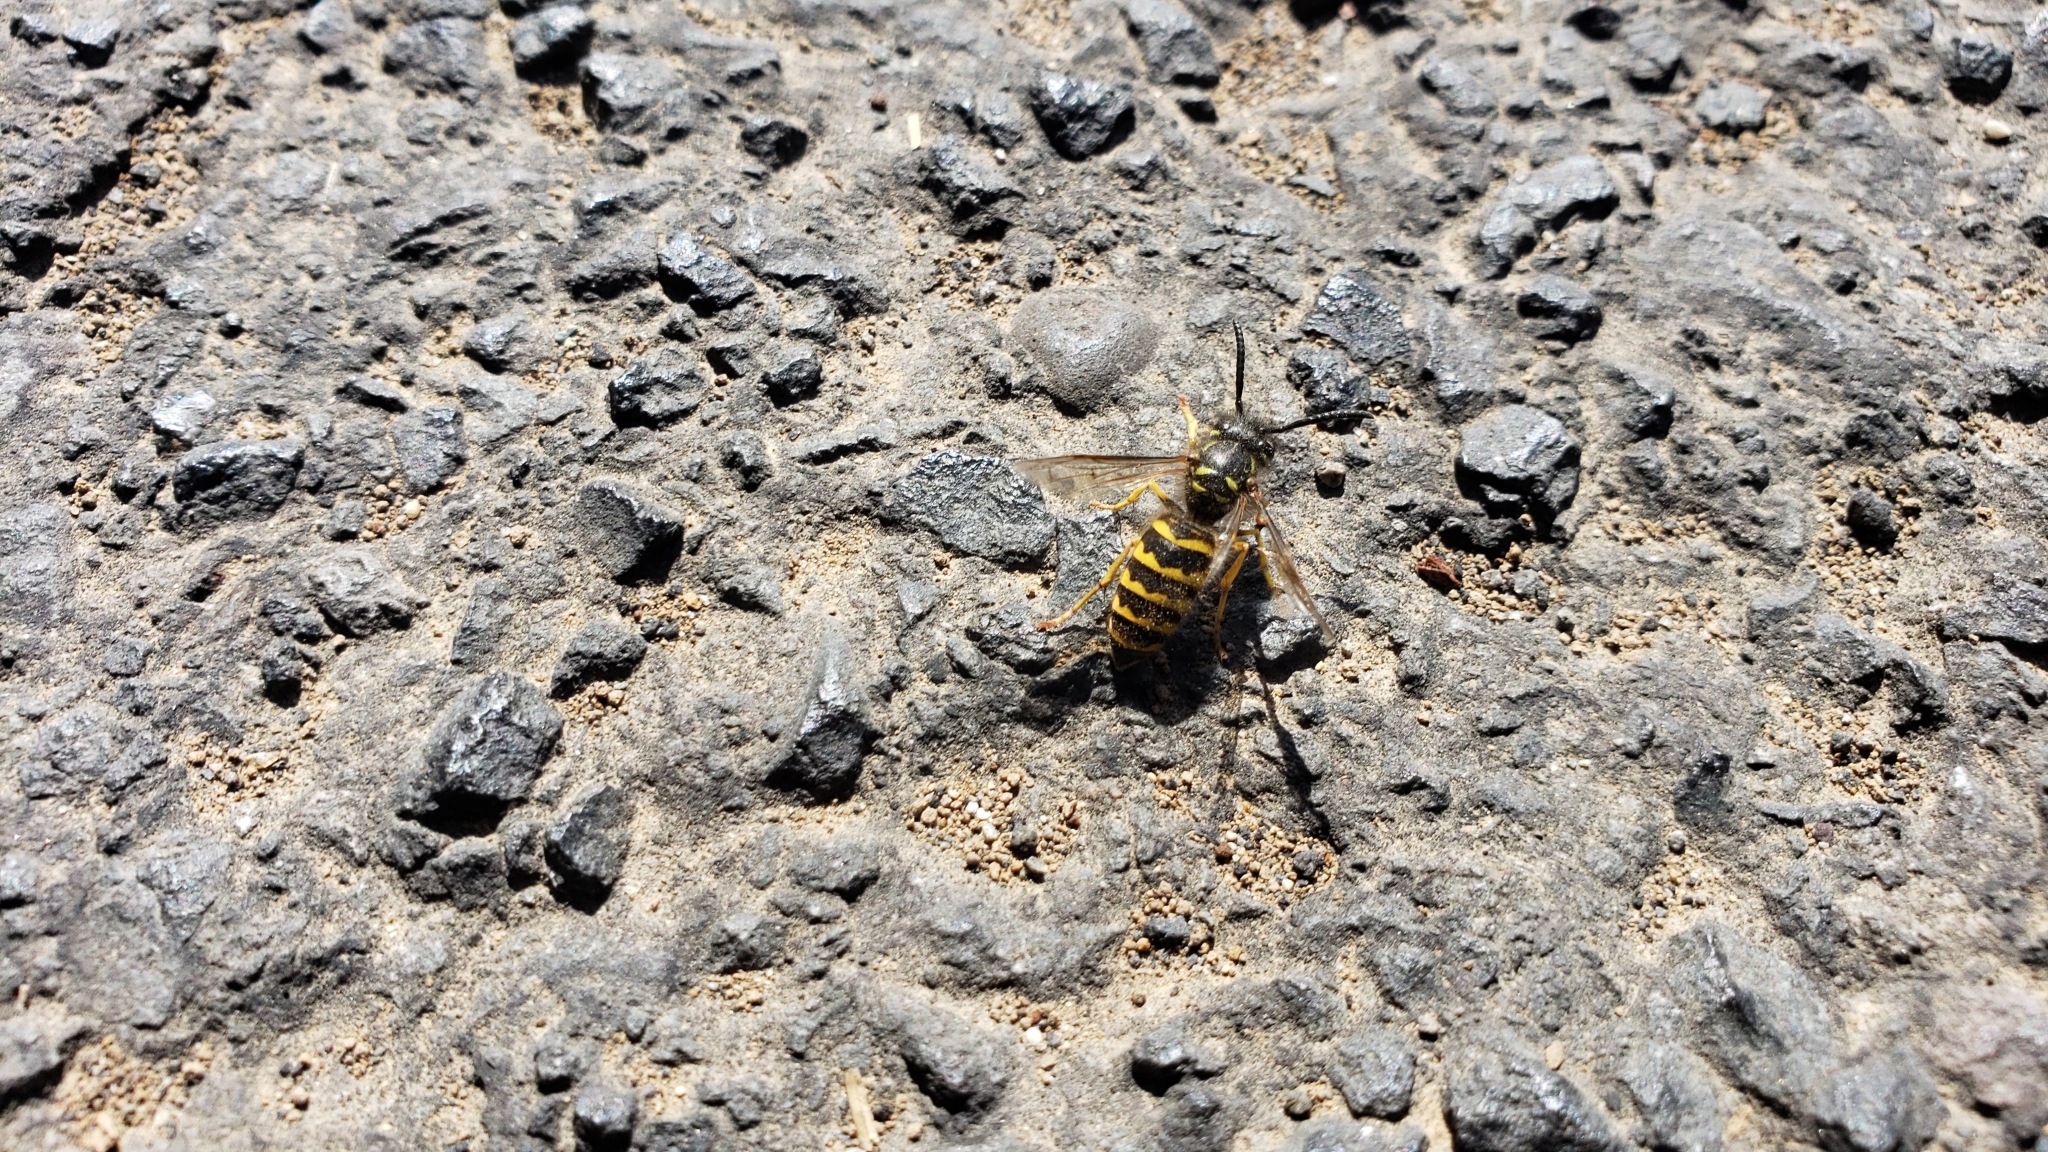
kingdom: Animalia
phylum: Arthropoda
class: Insecta
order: Hymenoptera
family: Vespidae
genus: Vespula
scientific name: Vespula alascensis
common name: Alaska yellowjacket
